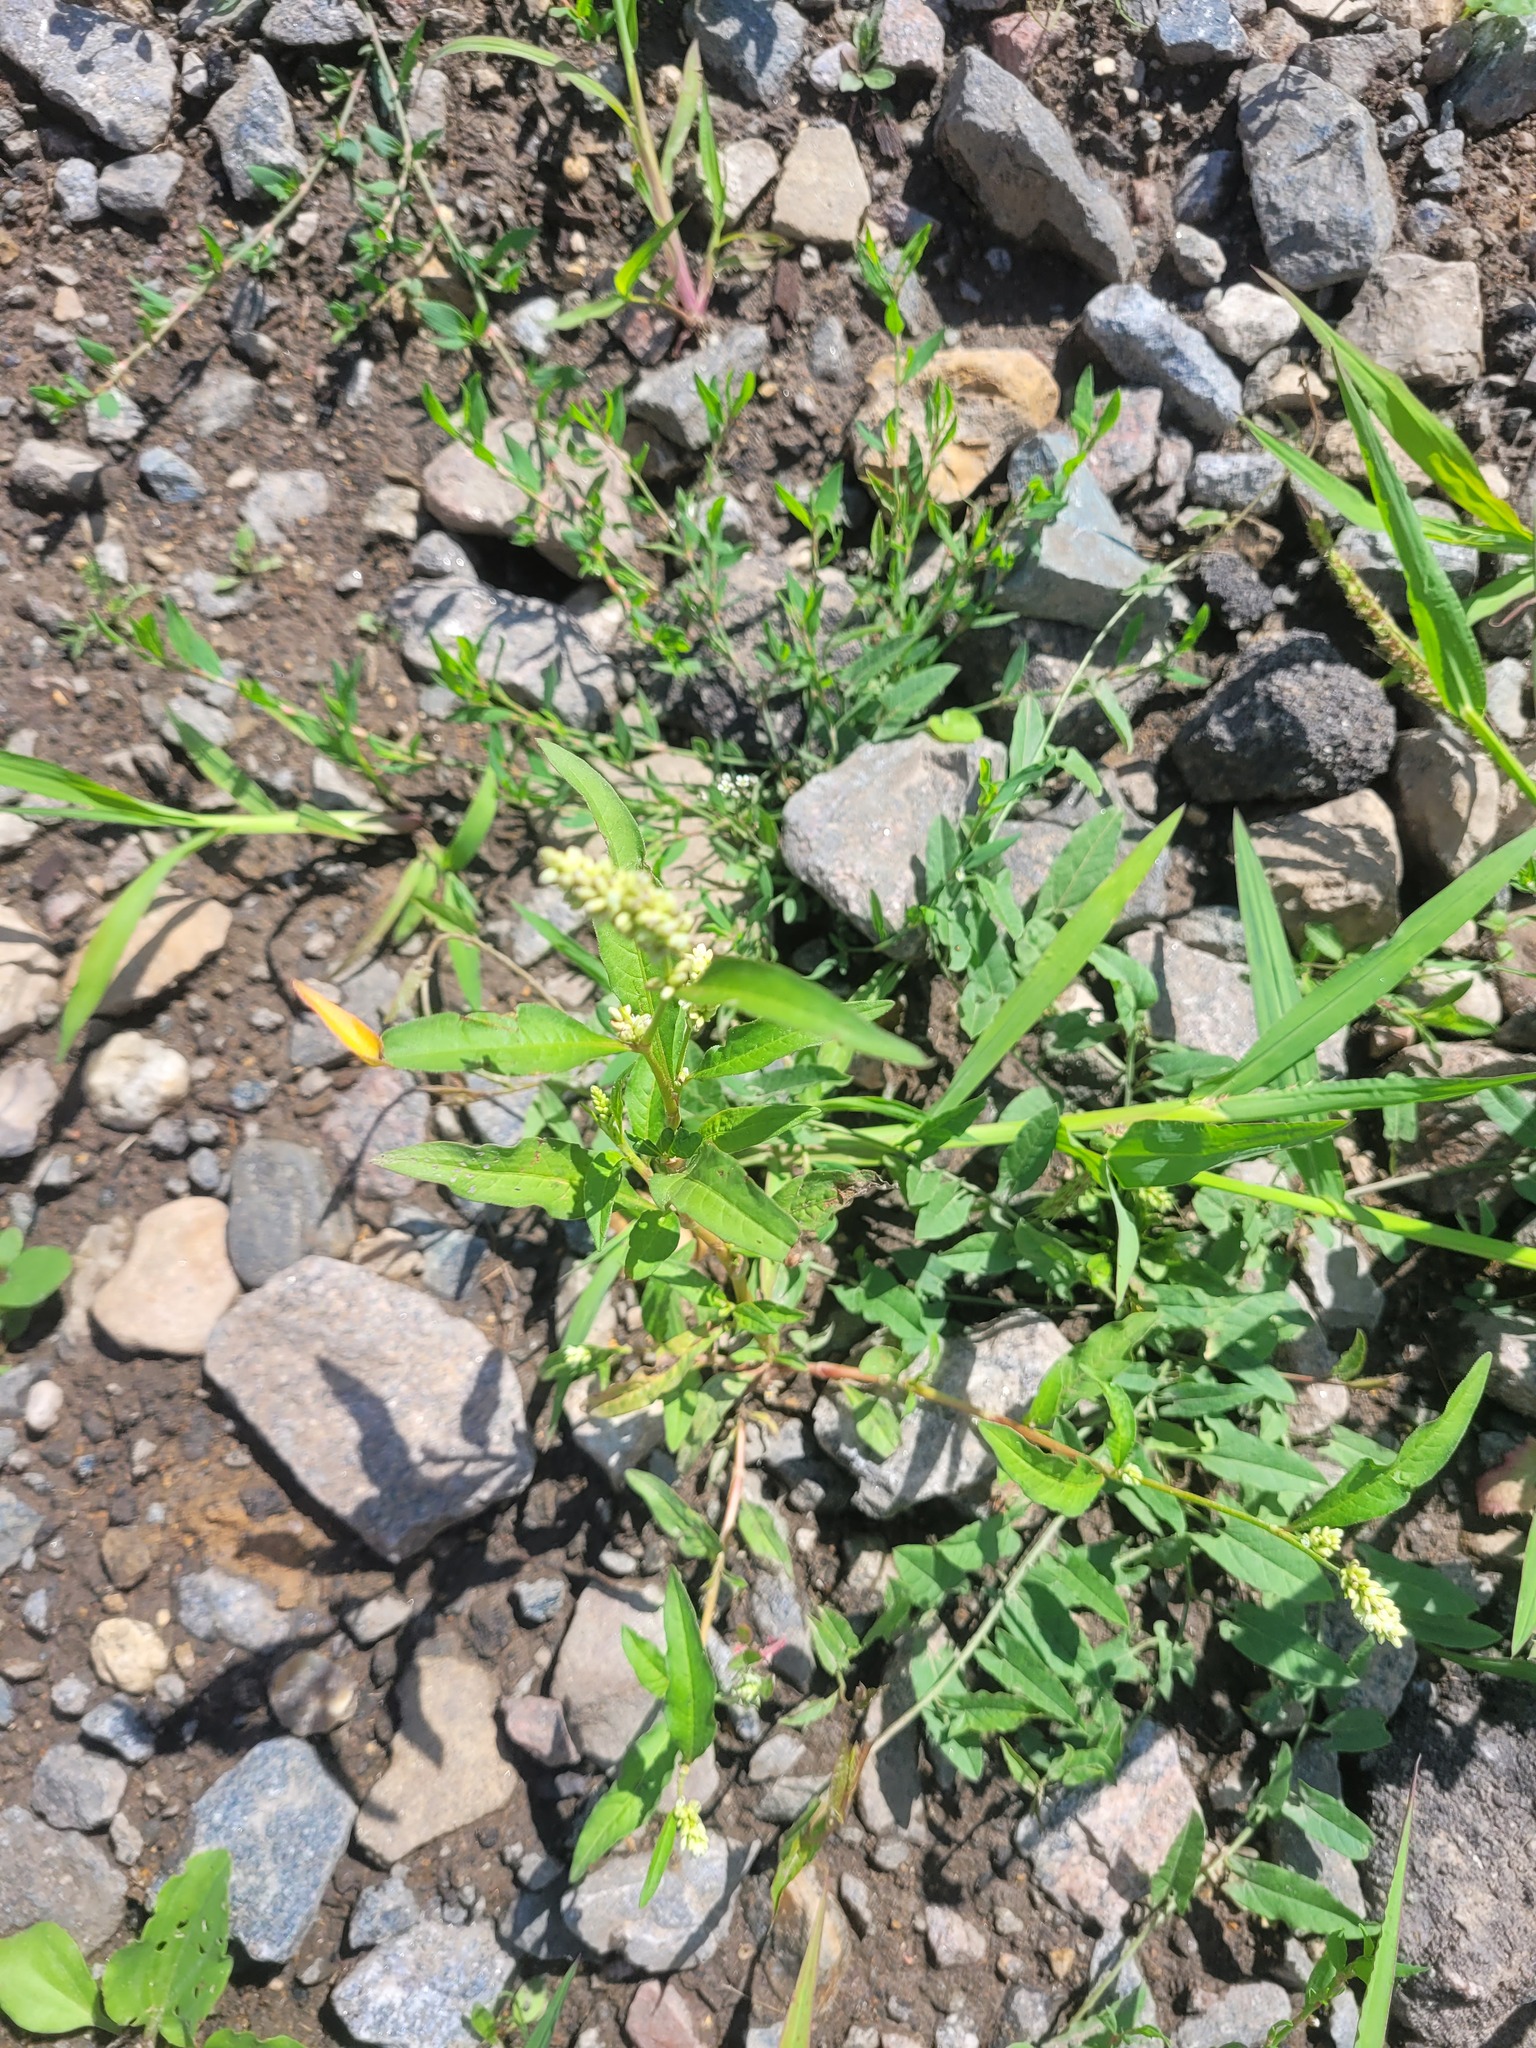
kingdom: Plantae
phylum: Tracheophyta
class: Magnoliopsida
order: Caryophyllales
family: Polygonaceae
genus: Persicaria
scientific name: Persicaria lapathifolia
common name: Curlytop knotweed
